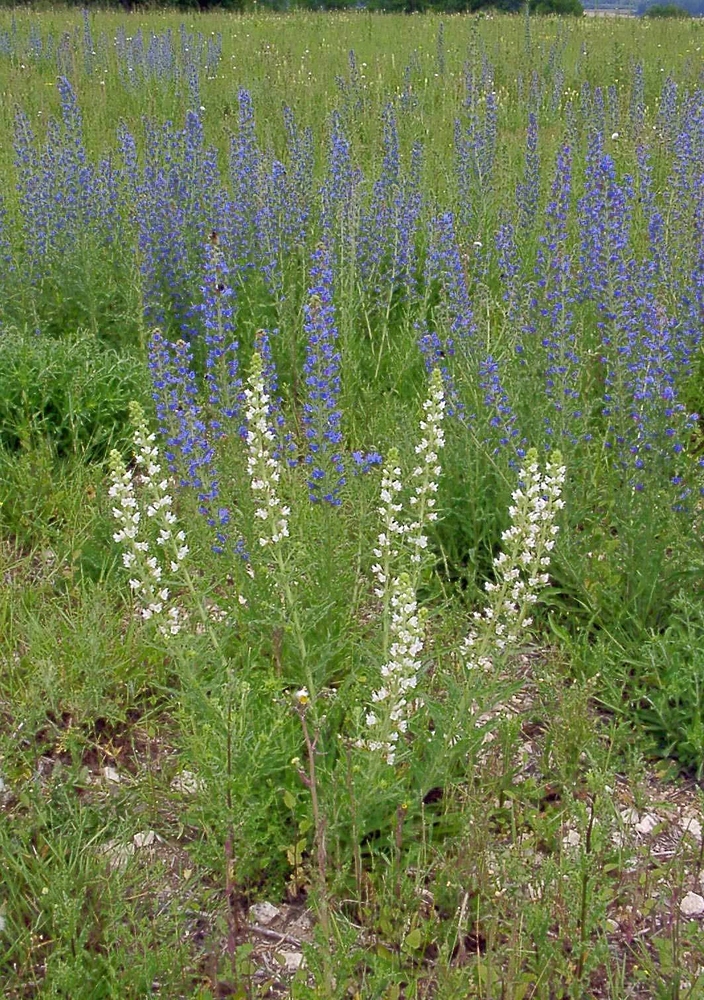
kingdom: Plantae
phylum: Tracheophyta
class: Magnoliopsida
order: Boraginales
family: Boraginaceae
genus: Echium
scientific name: Echium vulgare
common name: Common viper's bugloss
